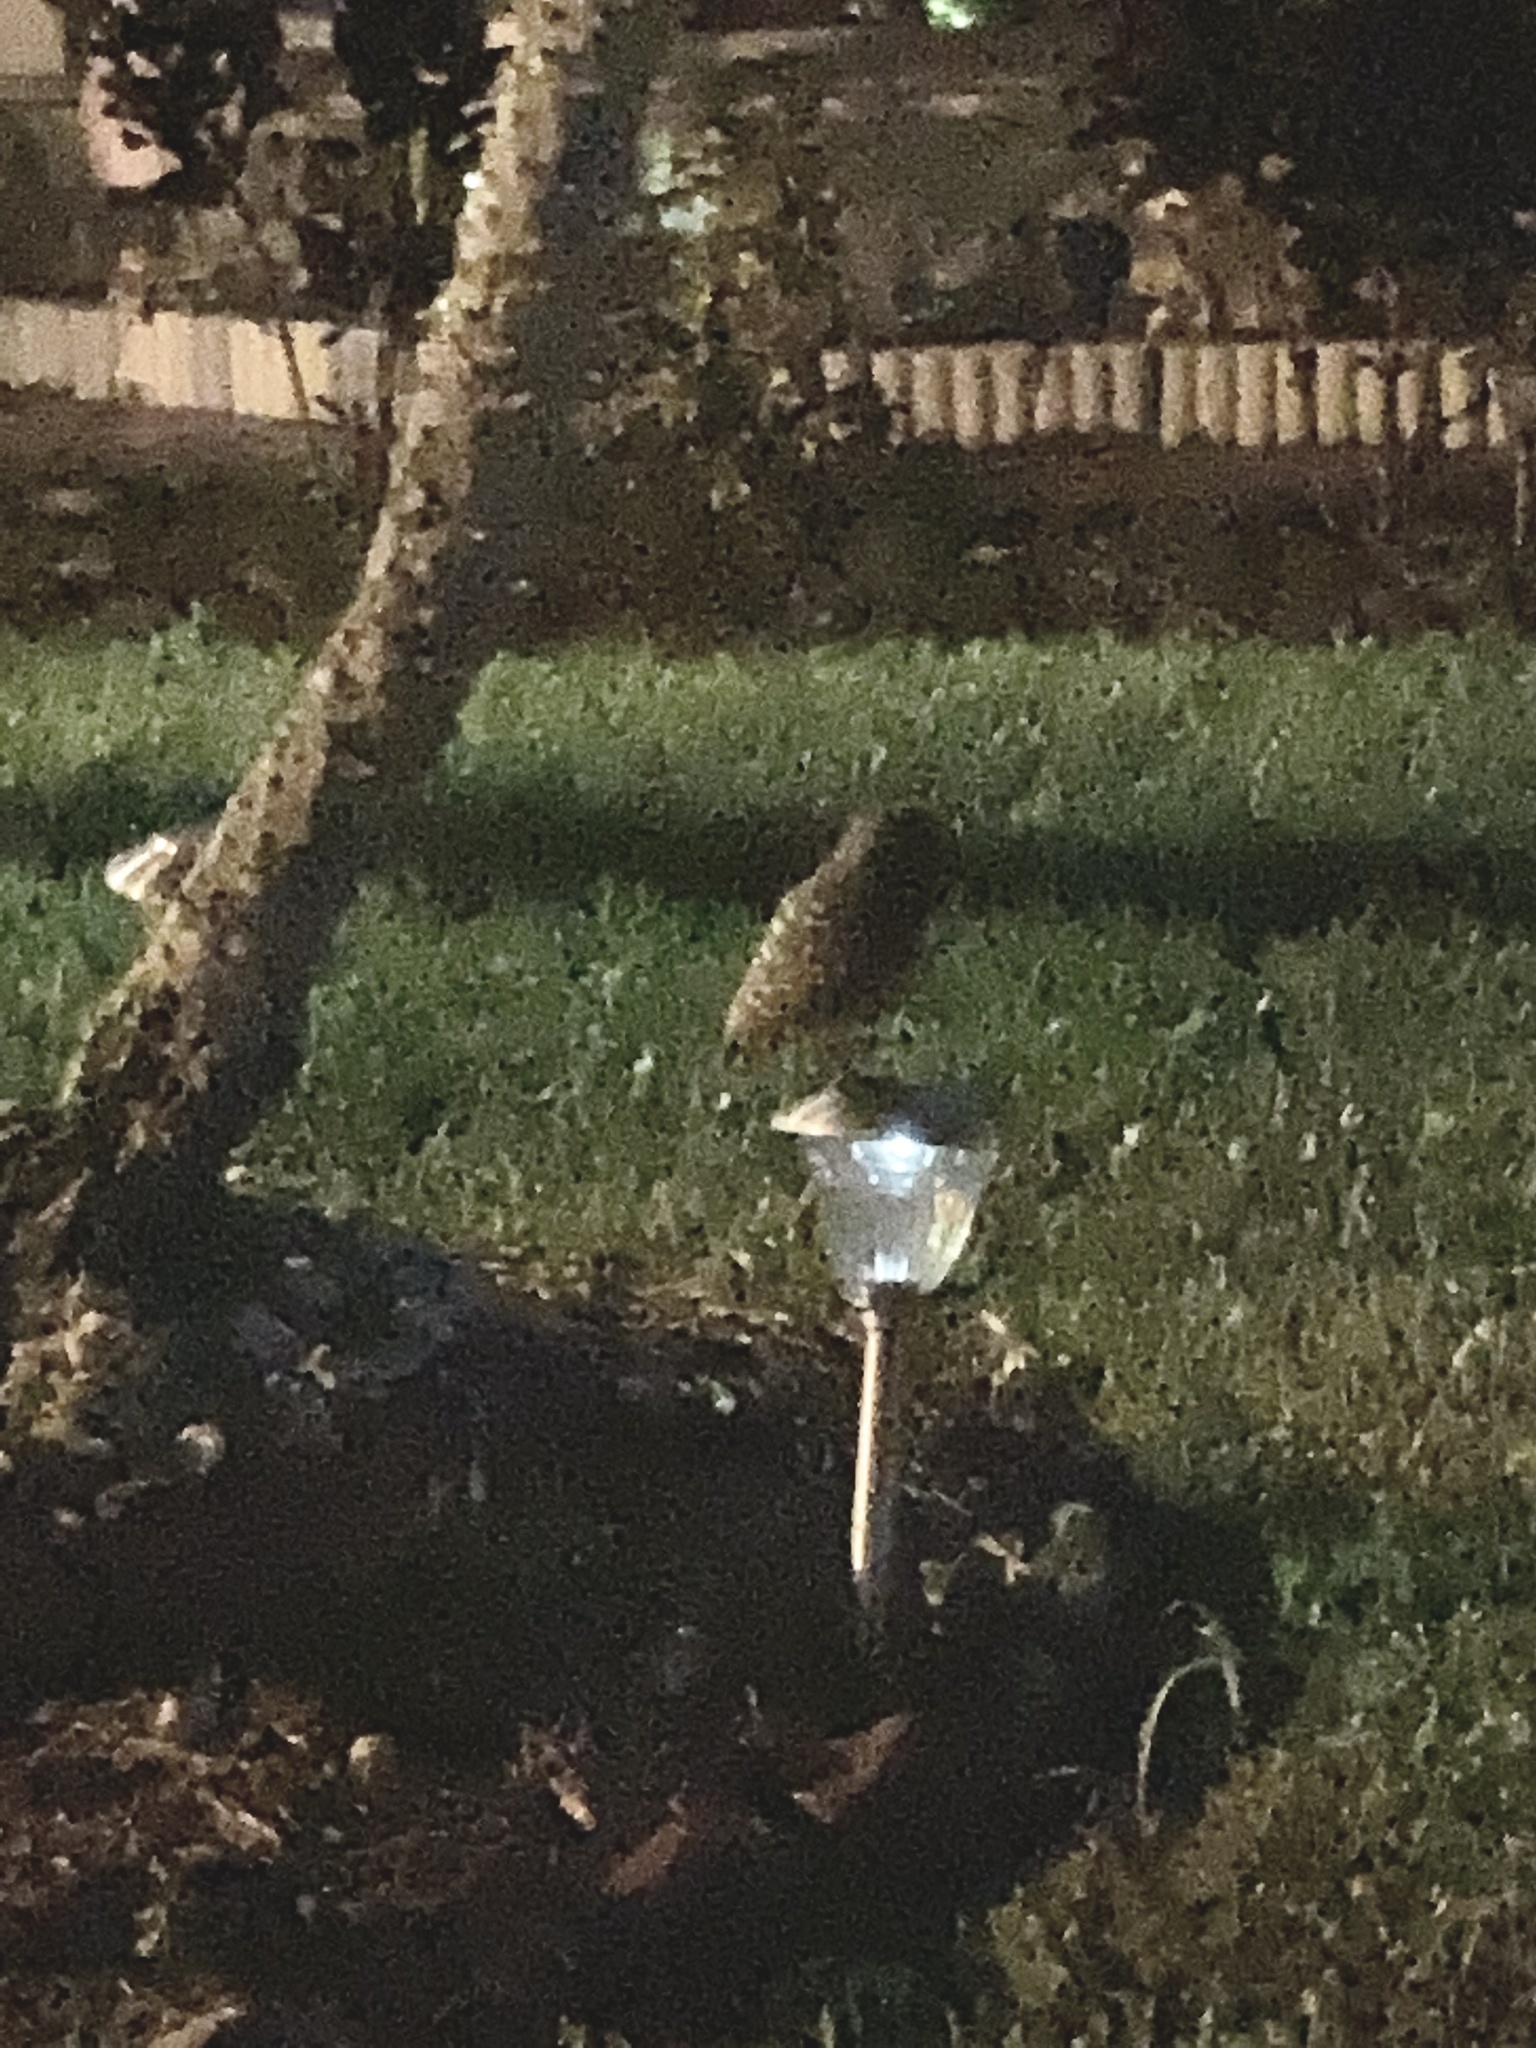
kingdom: Animalia
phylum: Chordata
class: Aves
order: Strigiformes
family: Strigidae
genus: Athene
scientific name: Athene cunicularia
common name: Burrowing owl
